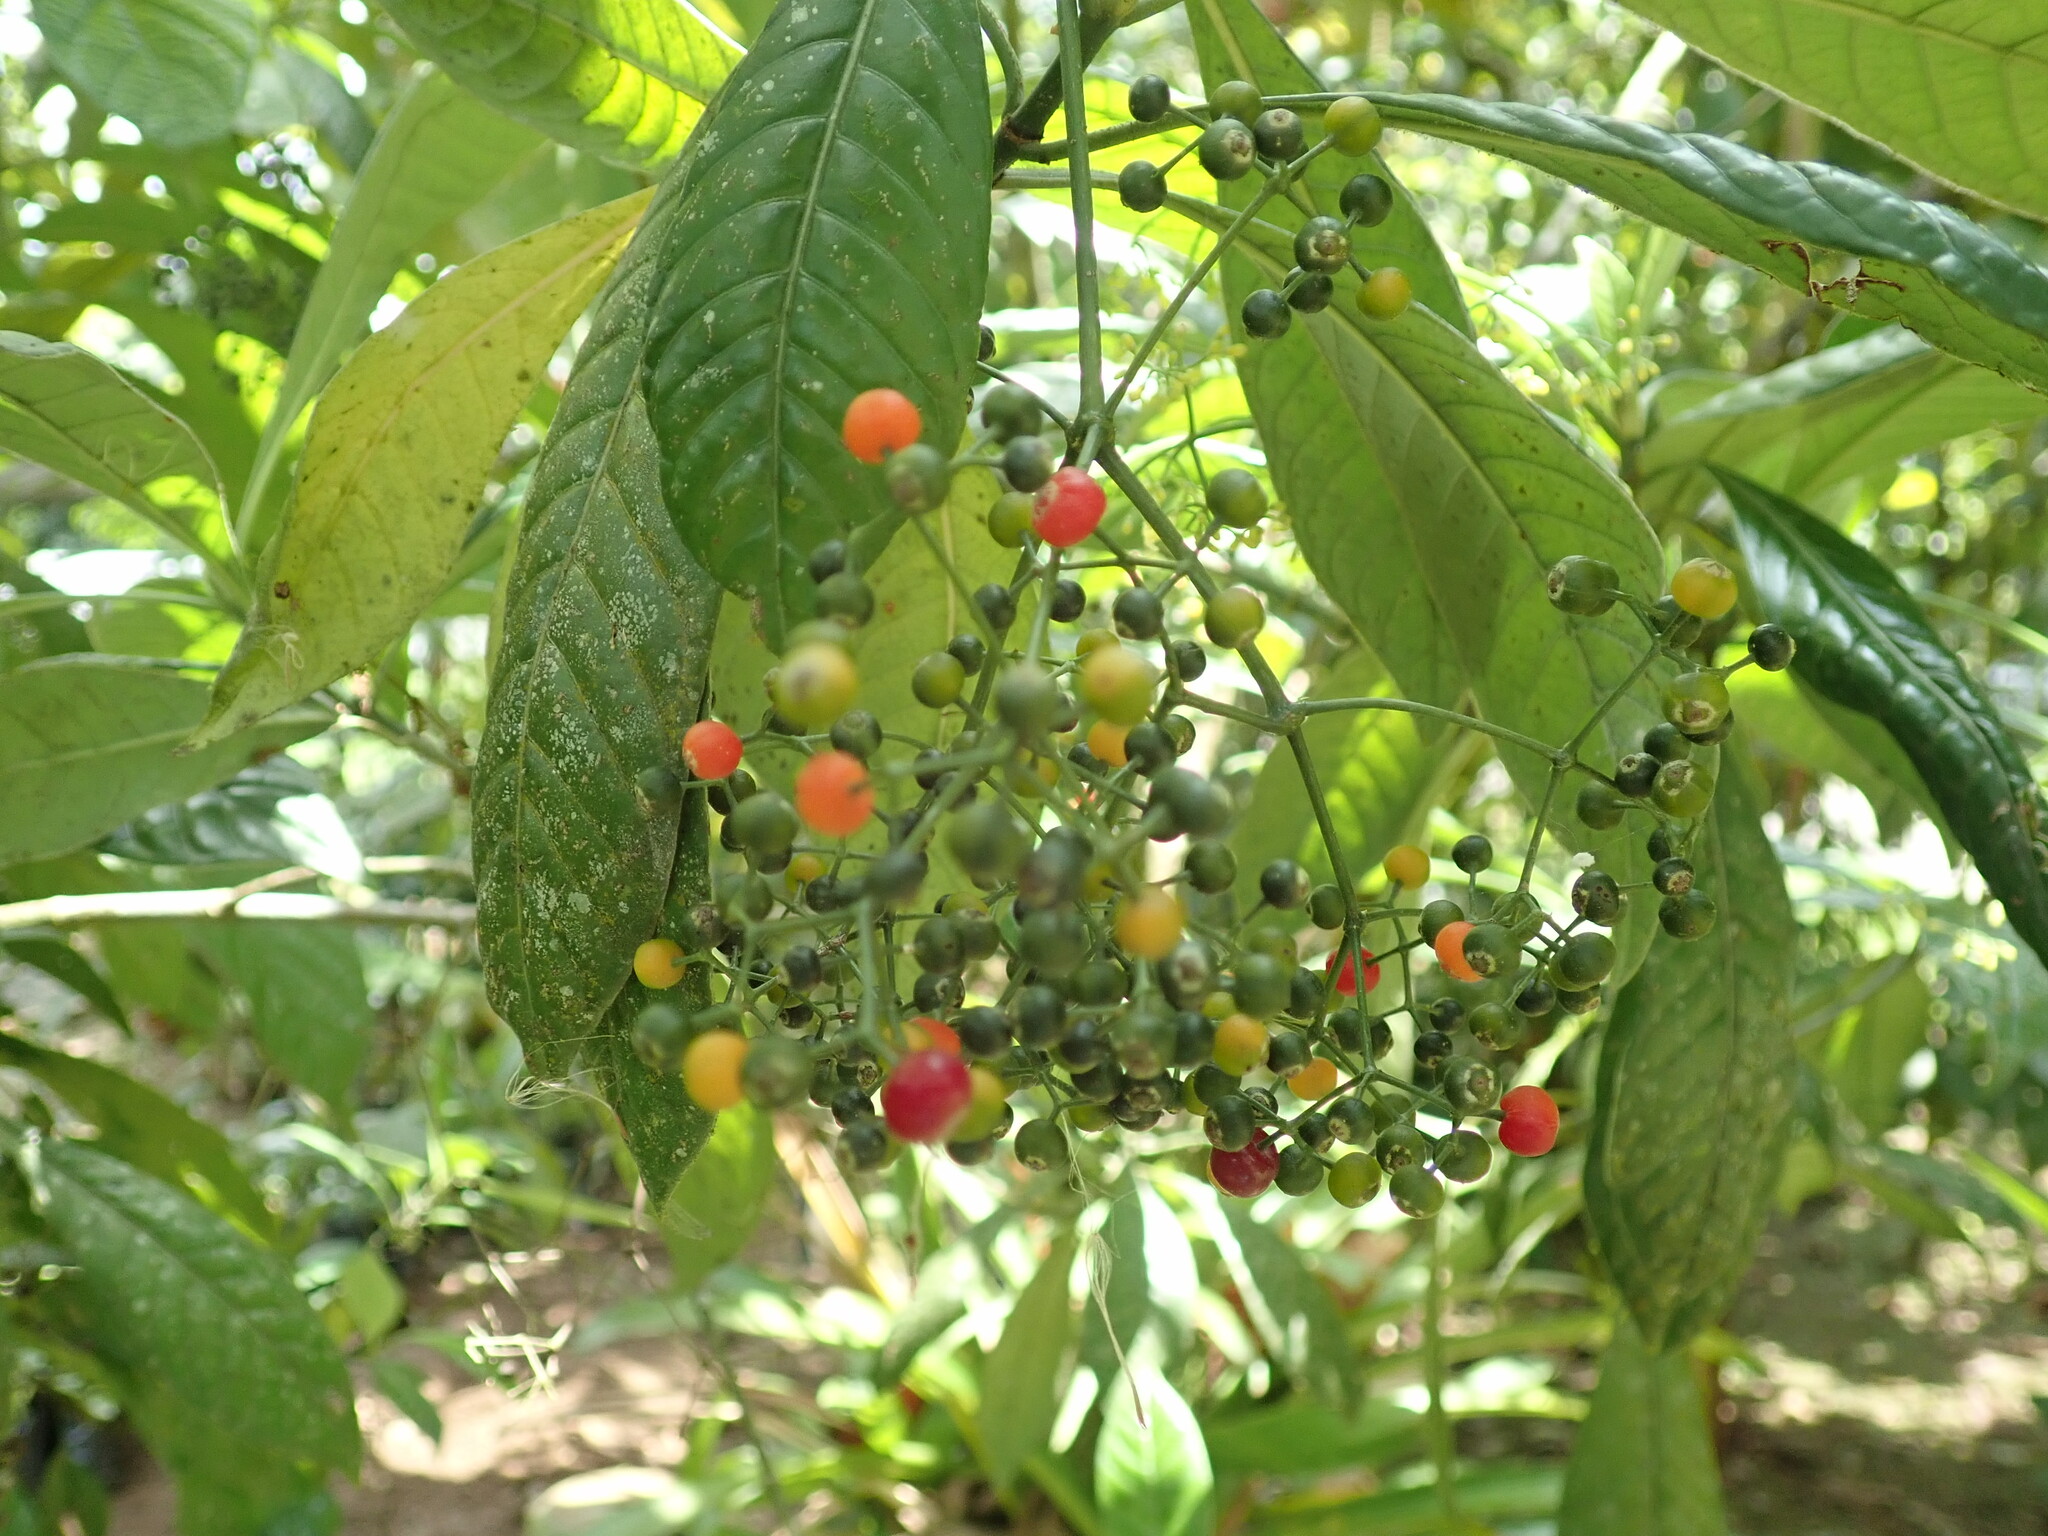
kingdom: Plantae
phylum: Tracheophyta
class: Magnoliopsida
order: Gentianales
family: Rubiaceae
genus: Psychotria
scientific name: Psychotria marginata
